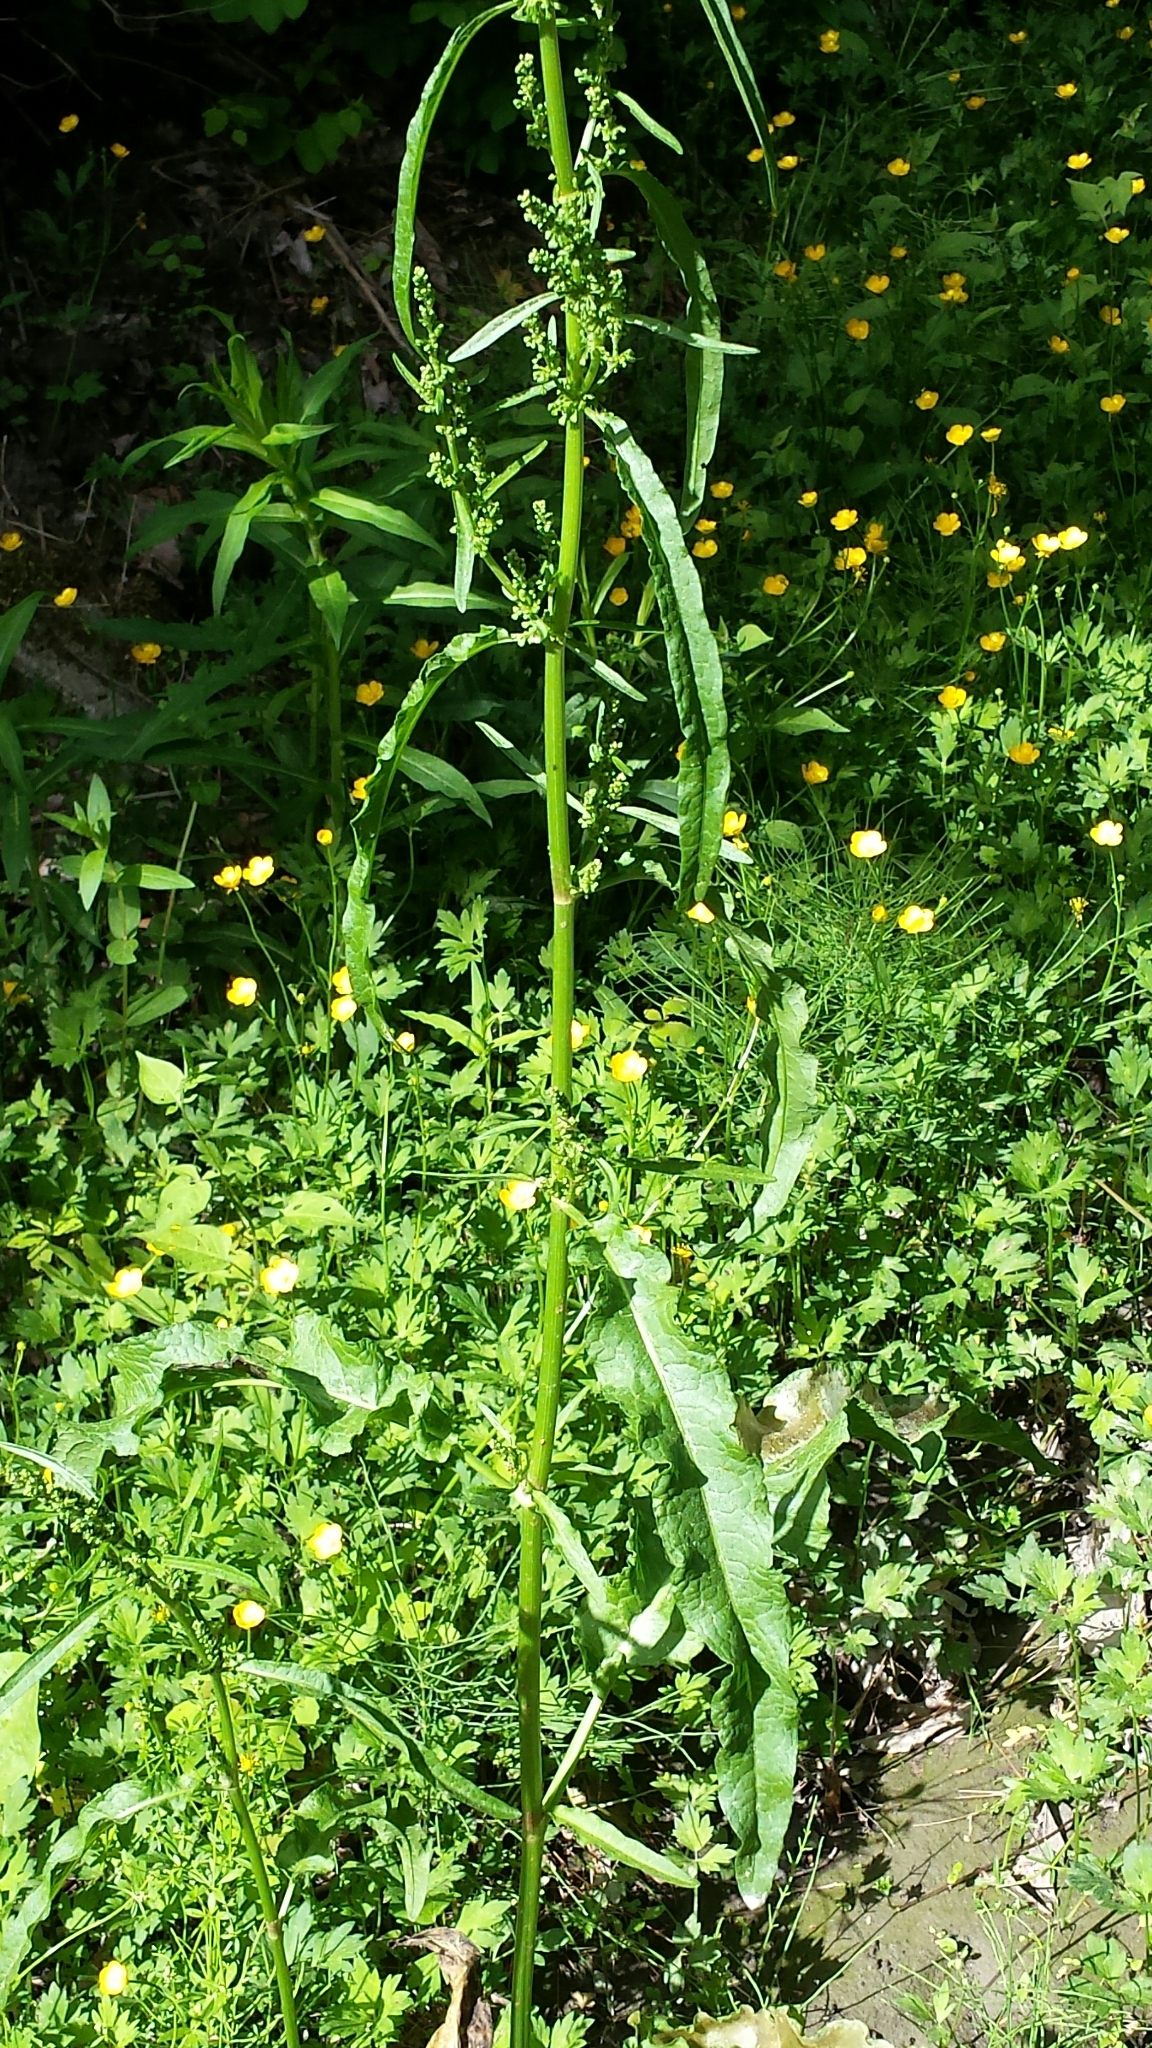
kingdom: Plantae
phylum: Tracheophyta
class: Magnoliopsida
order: Caryophyllales
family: Polygonaceae
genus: Rumex
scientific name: Rumex crispus
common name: Curled dock
